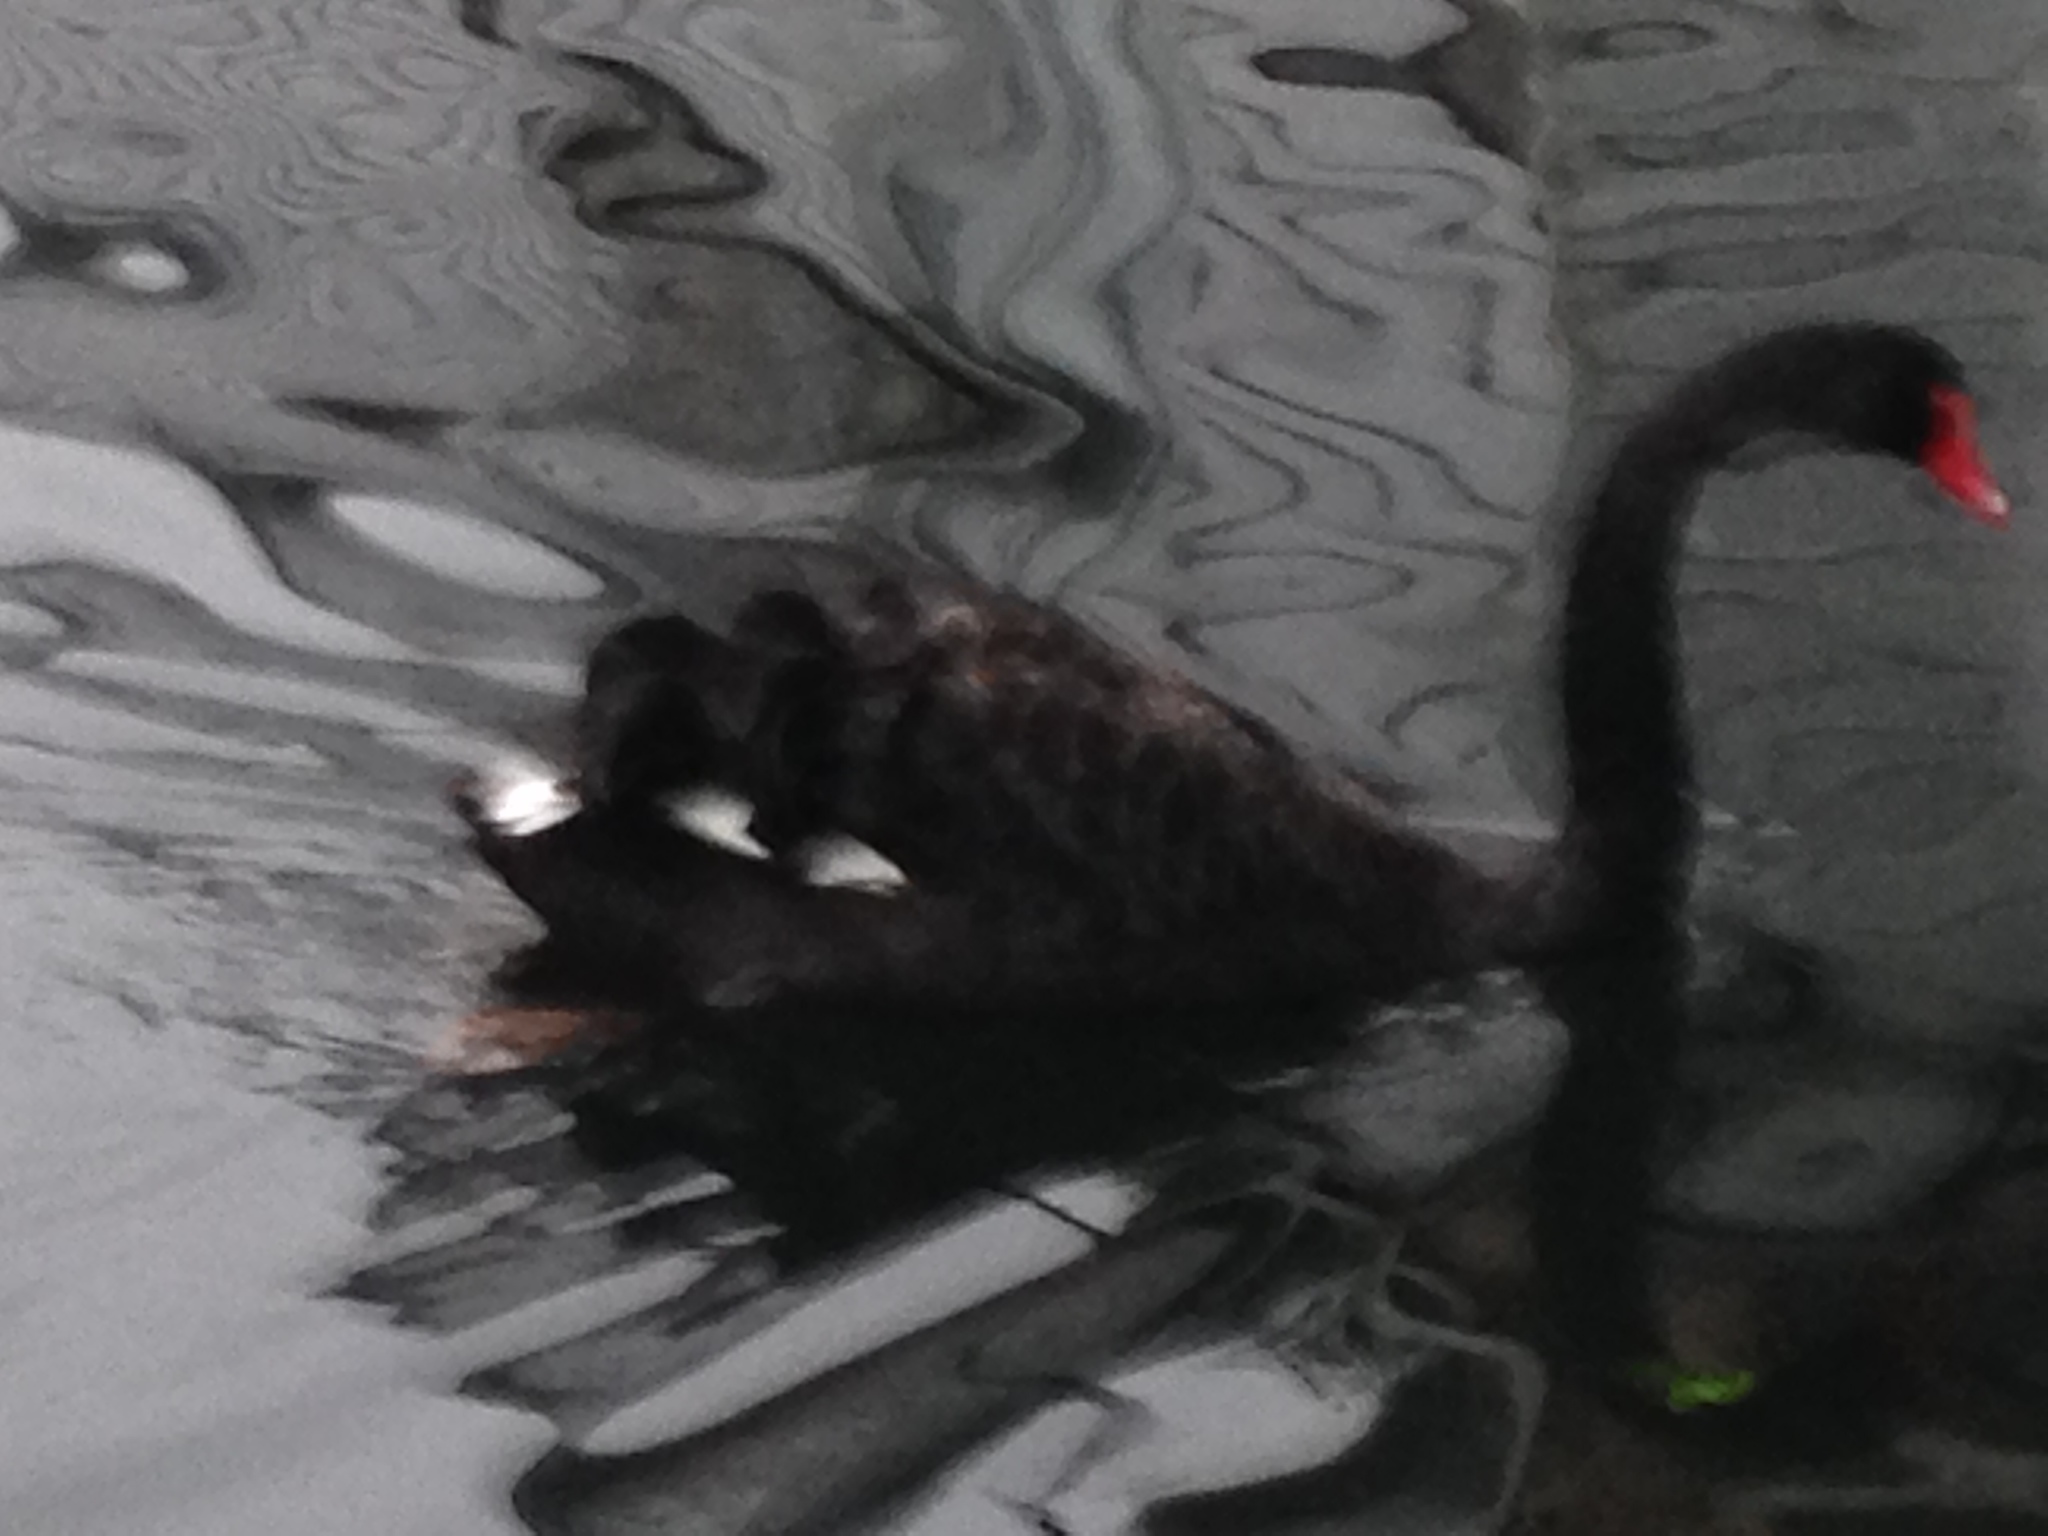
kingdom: Animalia
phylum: Chordata
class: Aves
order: Anseriformes
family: Anatidae
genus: Cygnus
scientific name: Cygnus atratus
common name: Black swan
